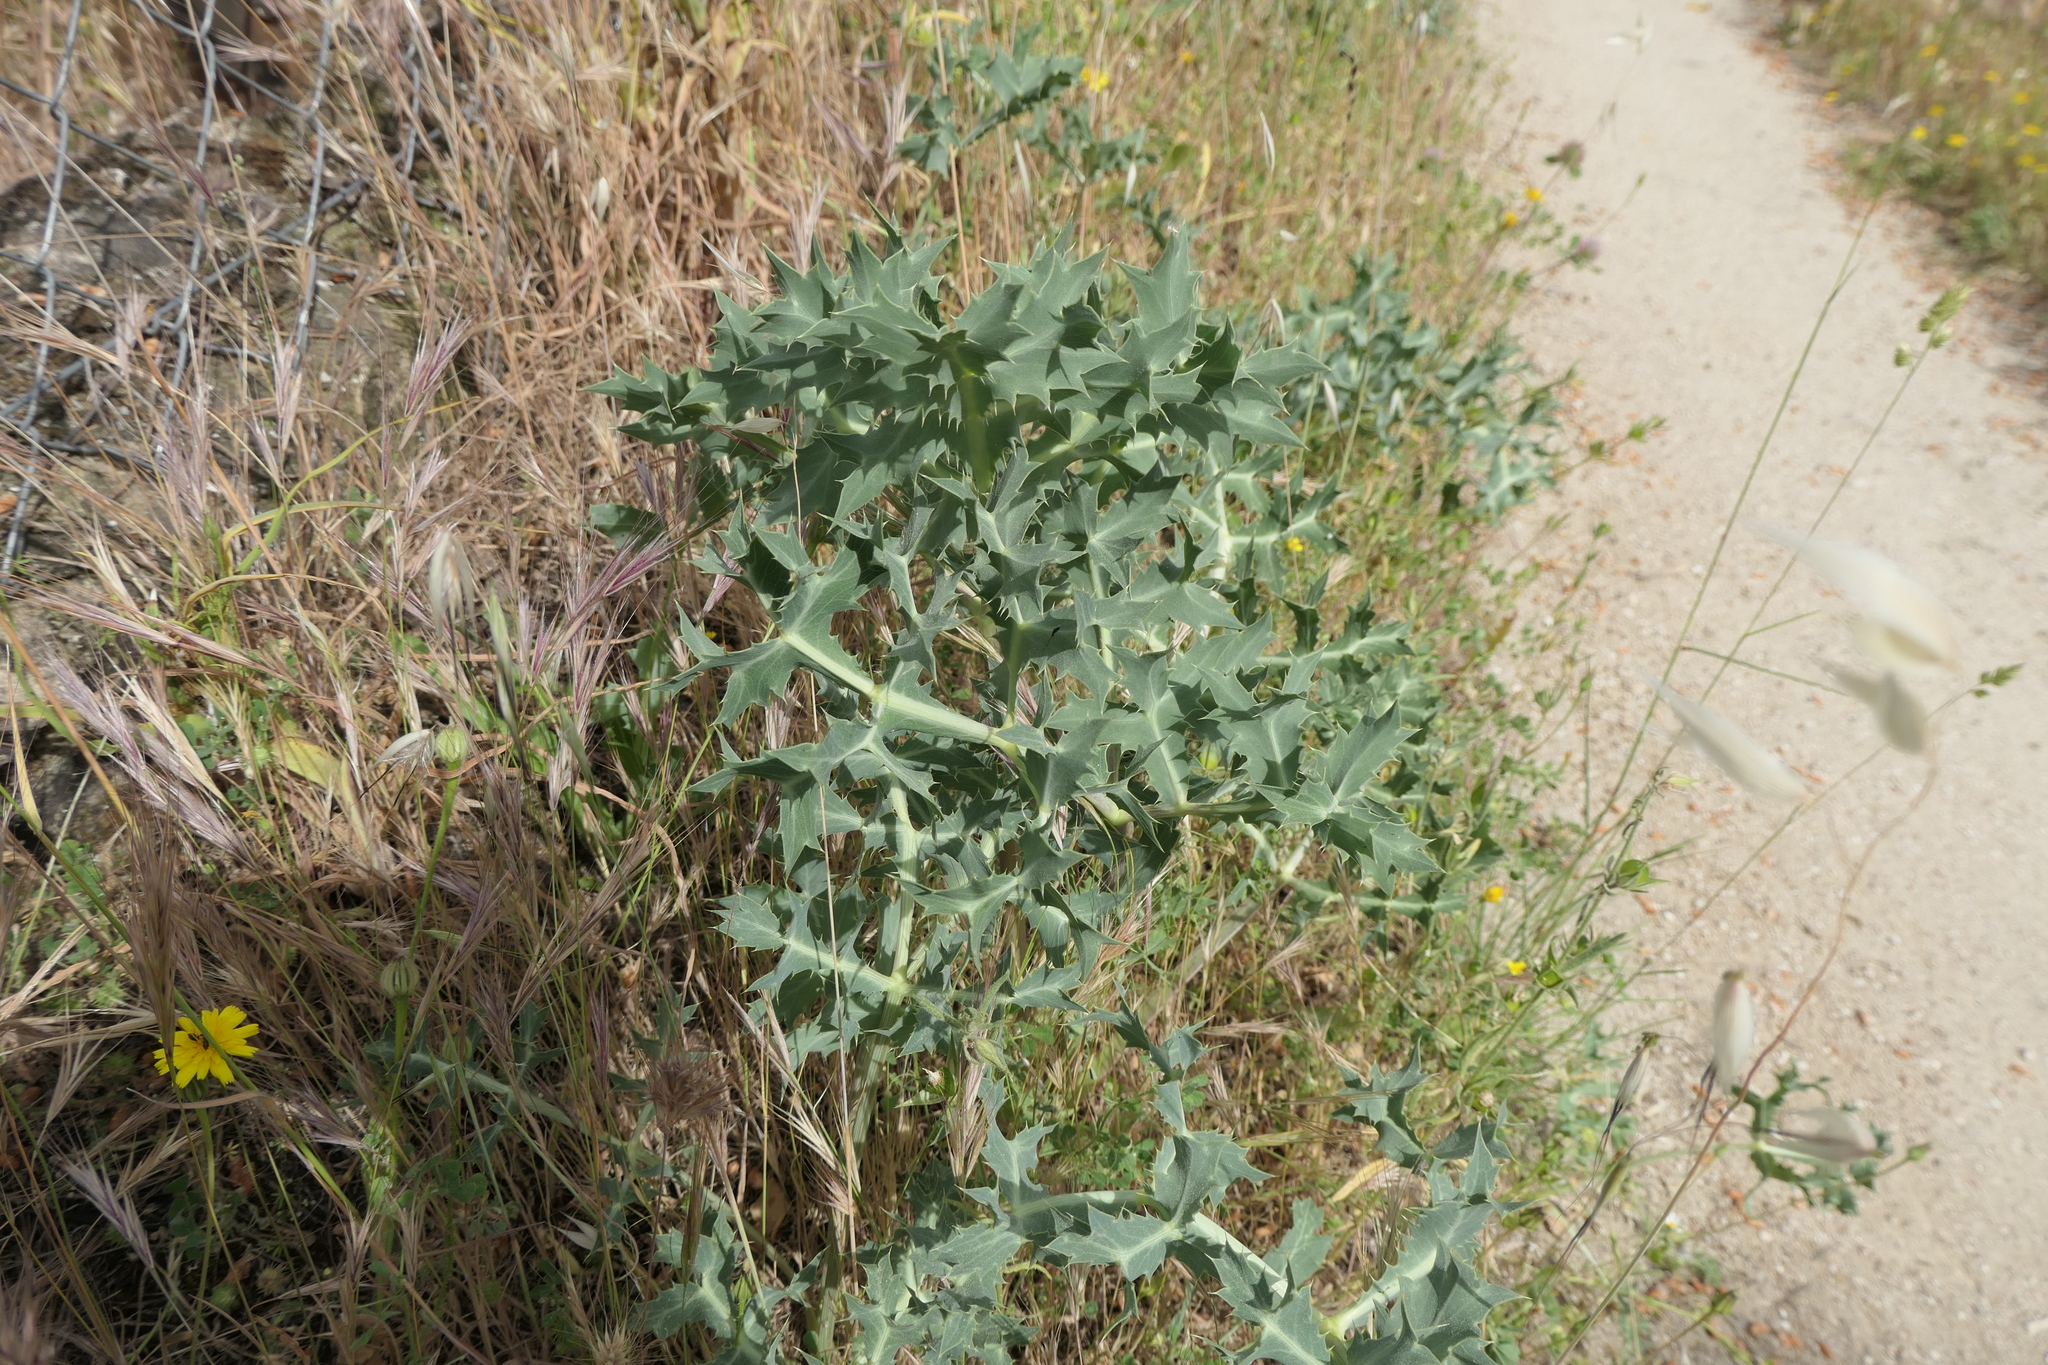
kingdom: Plantae
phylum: Tracheophyta
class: Magnoliopsida
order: Apiales
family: Apiaceae
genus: Eryngium
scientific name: Eryngium campestre
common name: Field eryngo
